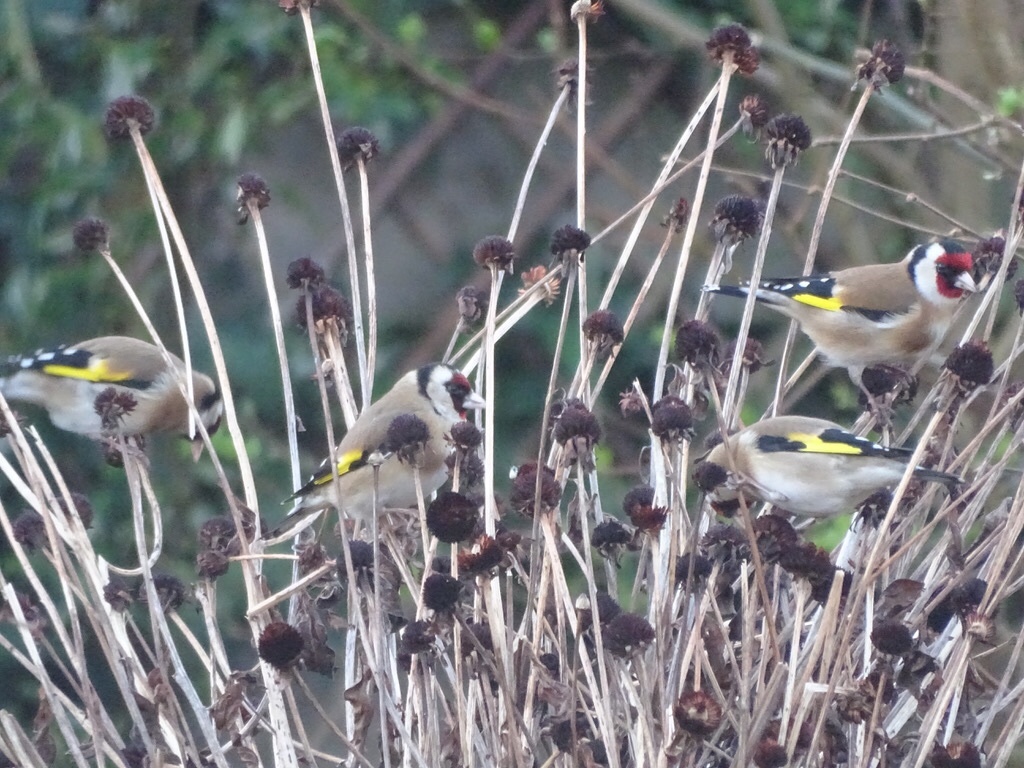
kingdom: Animalia
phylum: Chordata
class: Aves
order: Passeriformes
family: Fringillidae
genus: Carduelis
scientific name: Carduelis carduelis
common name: European goldfinch
